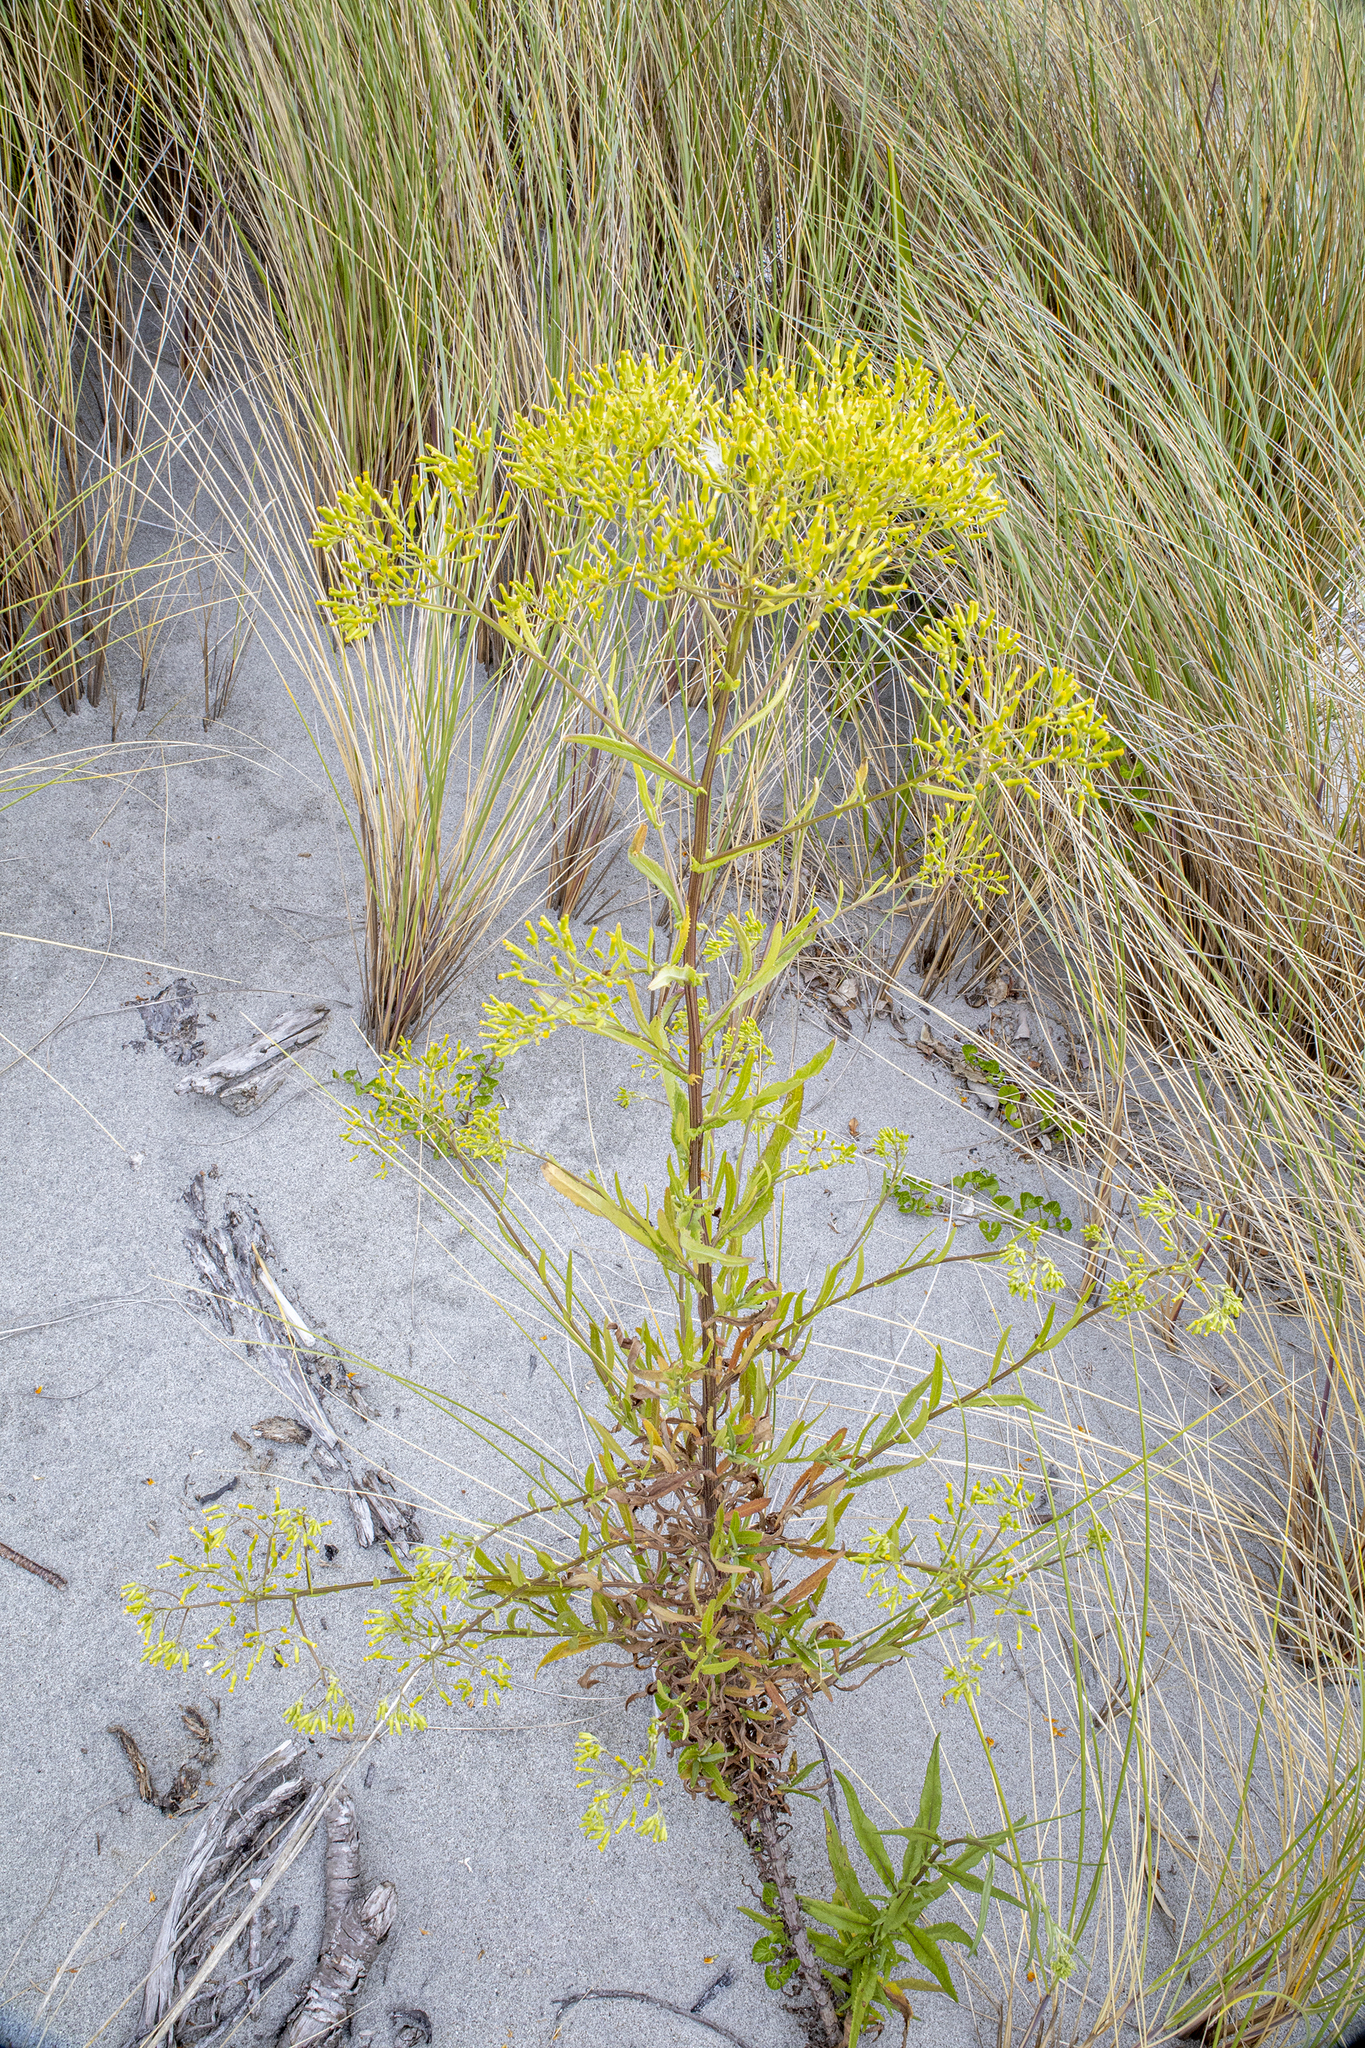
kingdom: Plantae
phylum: Tracheophyta
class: Magnoliopsida
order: Asterales
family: Asteraceae
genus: Senecio
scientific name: Senecio minimus
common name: Toothed fireweed
